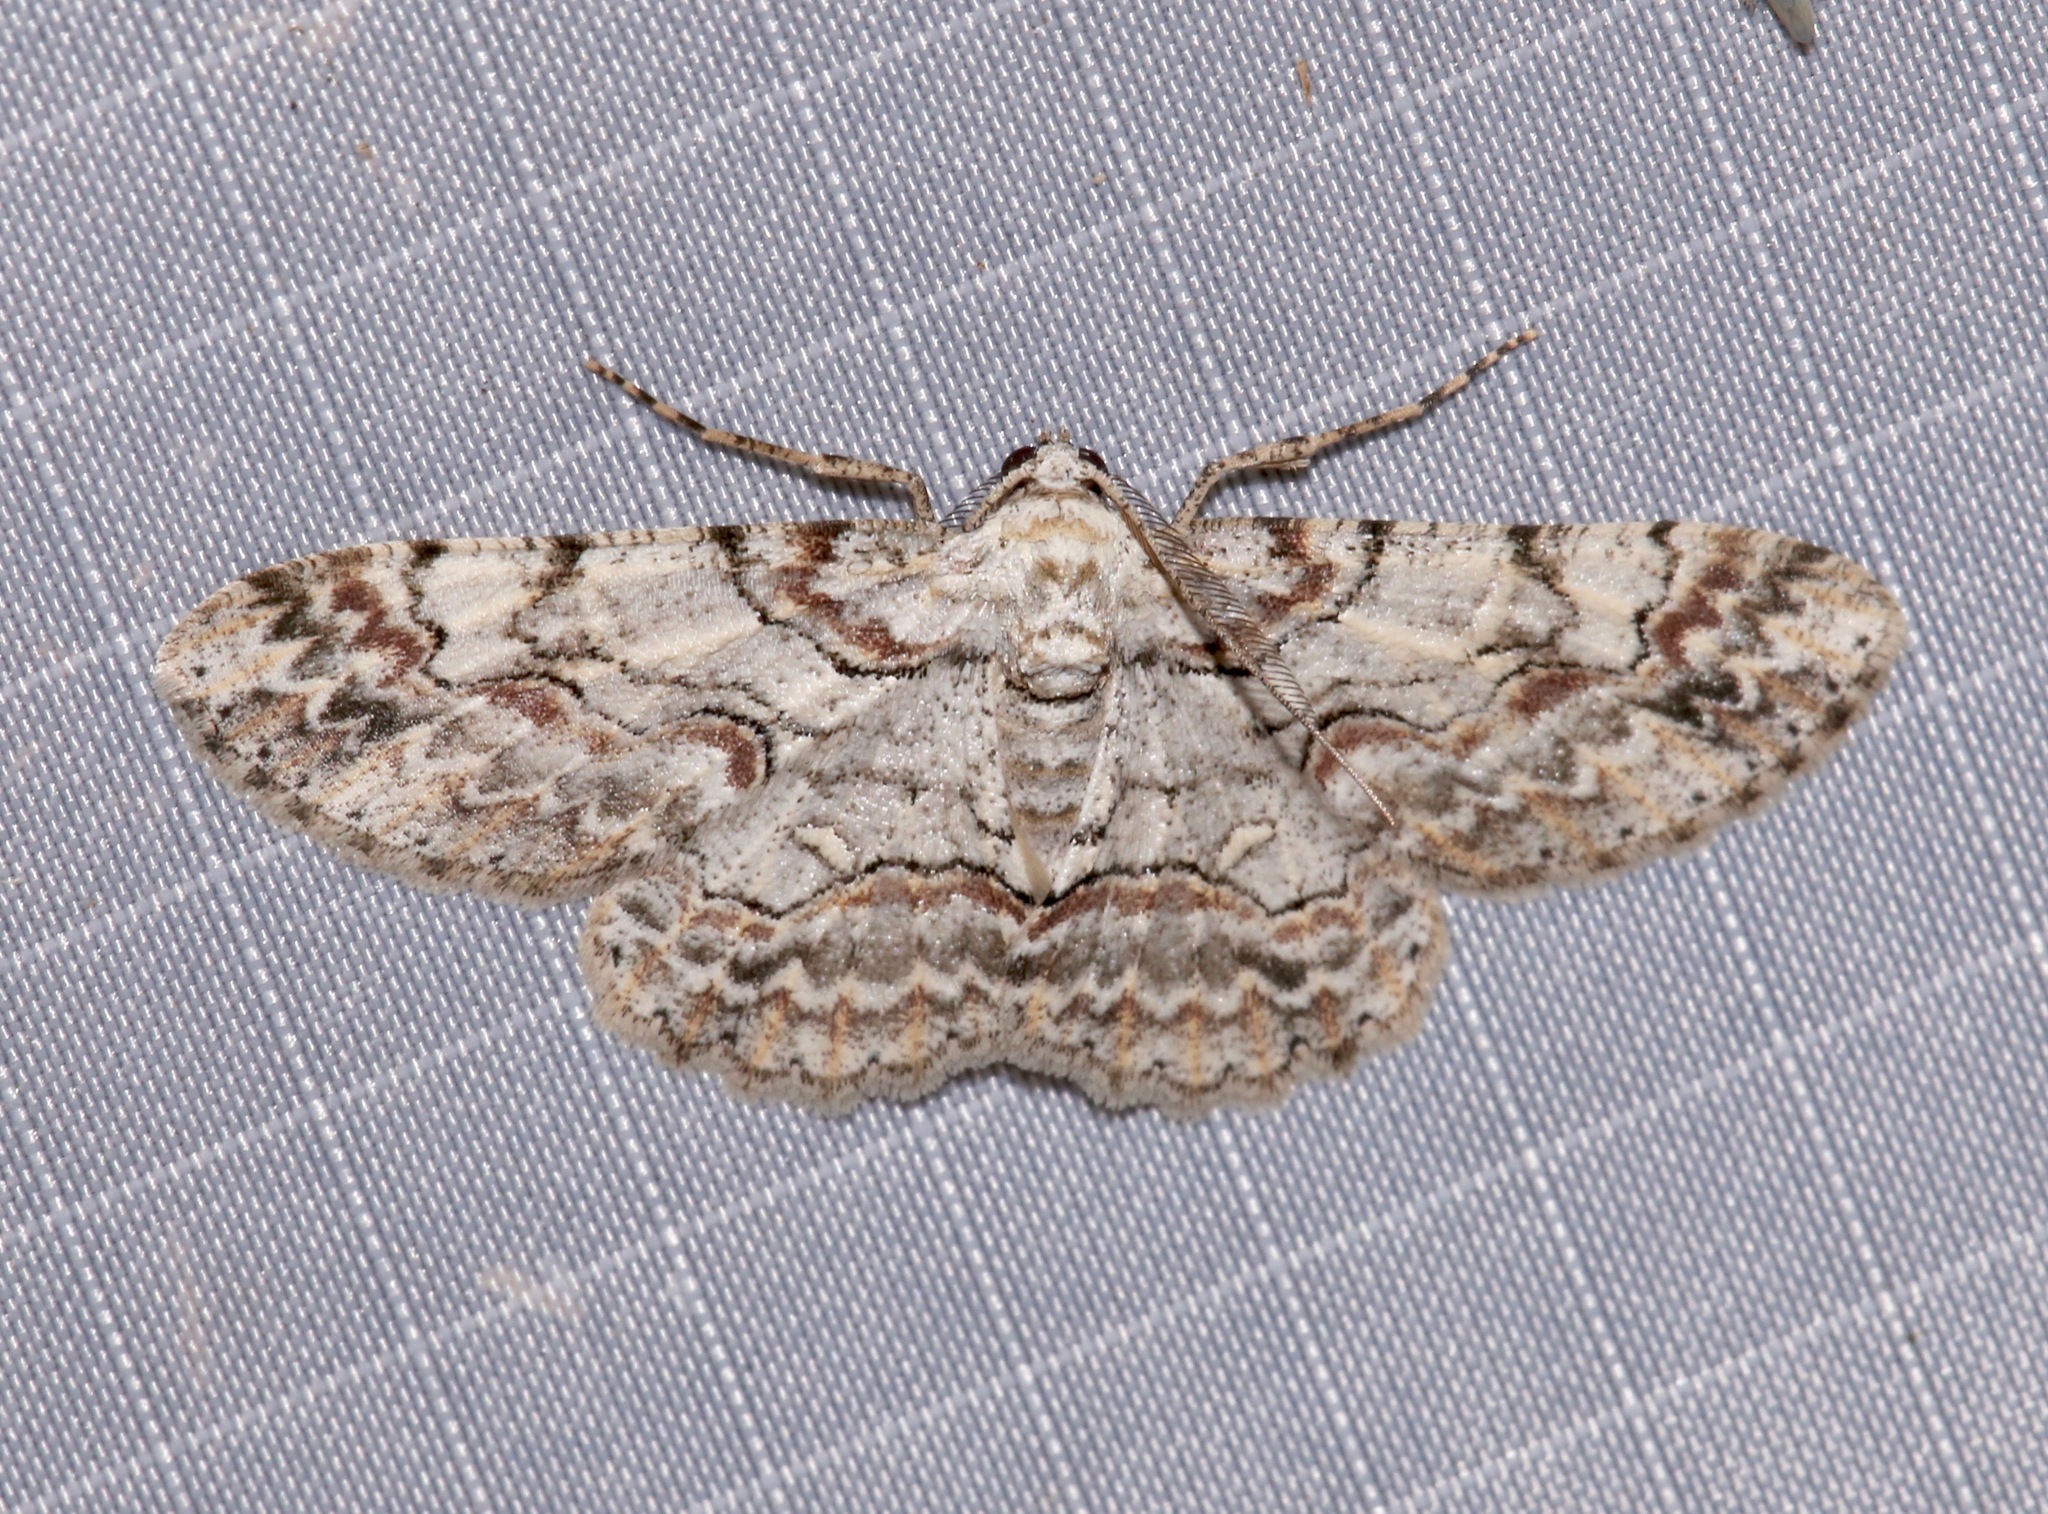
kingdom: Animalia
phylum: Arthropoda
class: Insecta
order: Lepidoptera
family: Geometridae
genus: Iridopsis
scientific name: Iridopsis defectaria
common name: Brown-shaded gray
